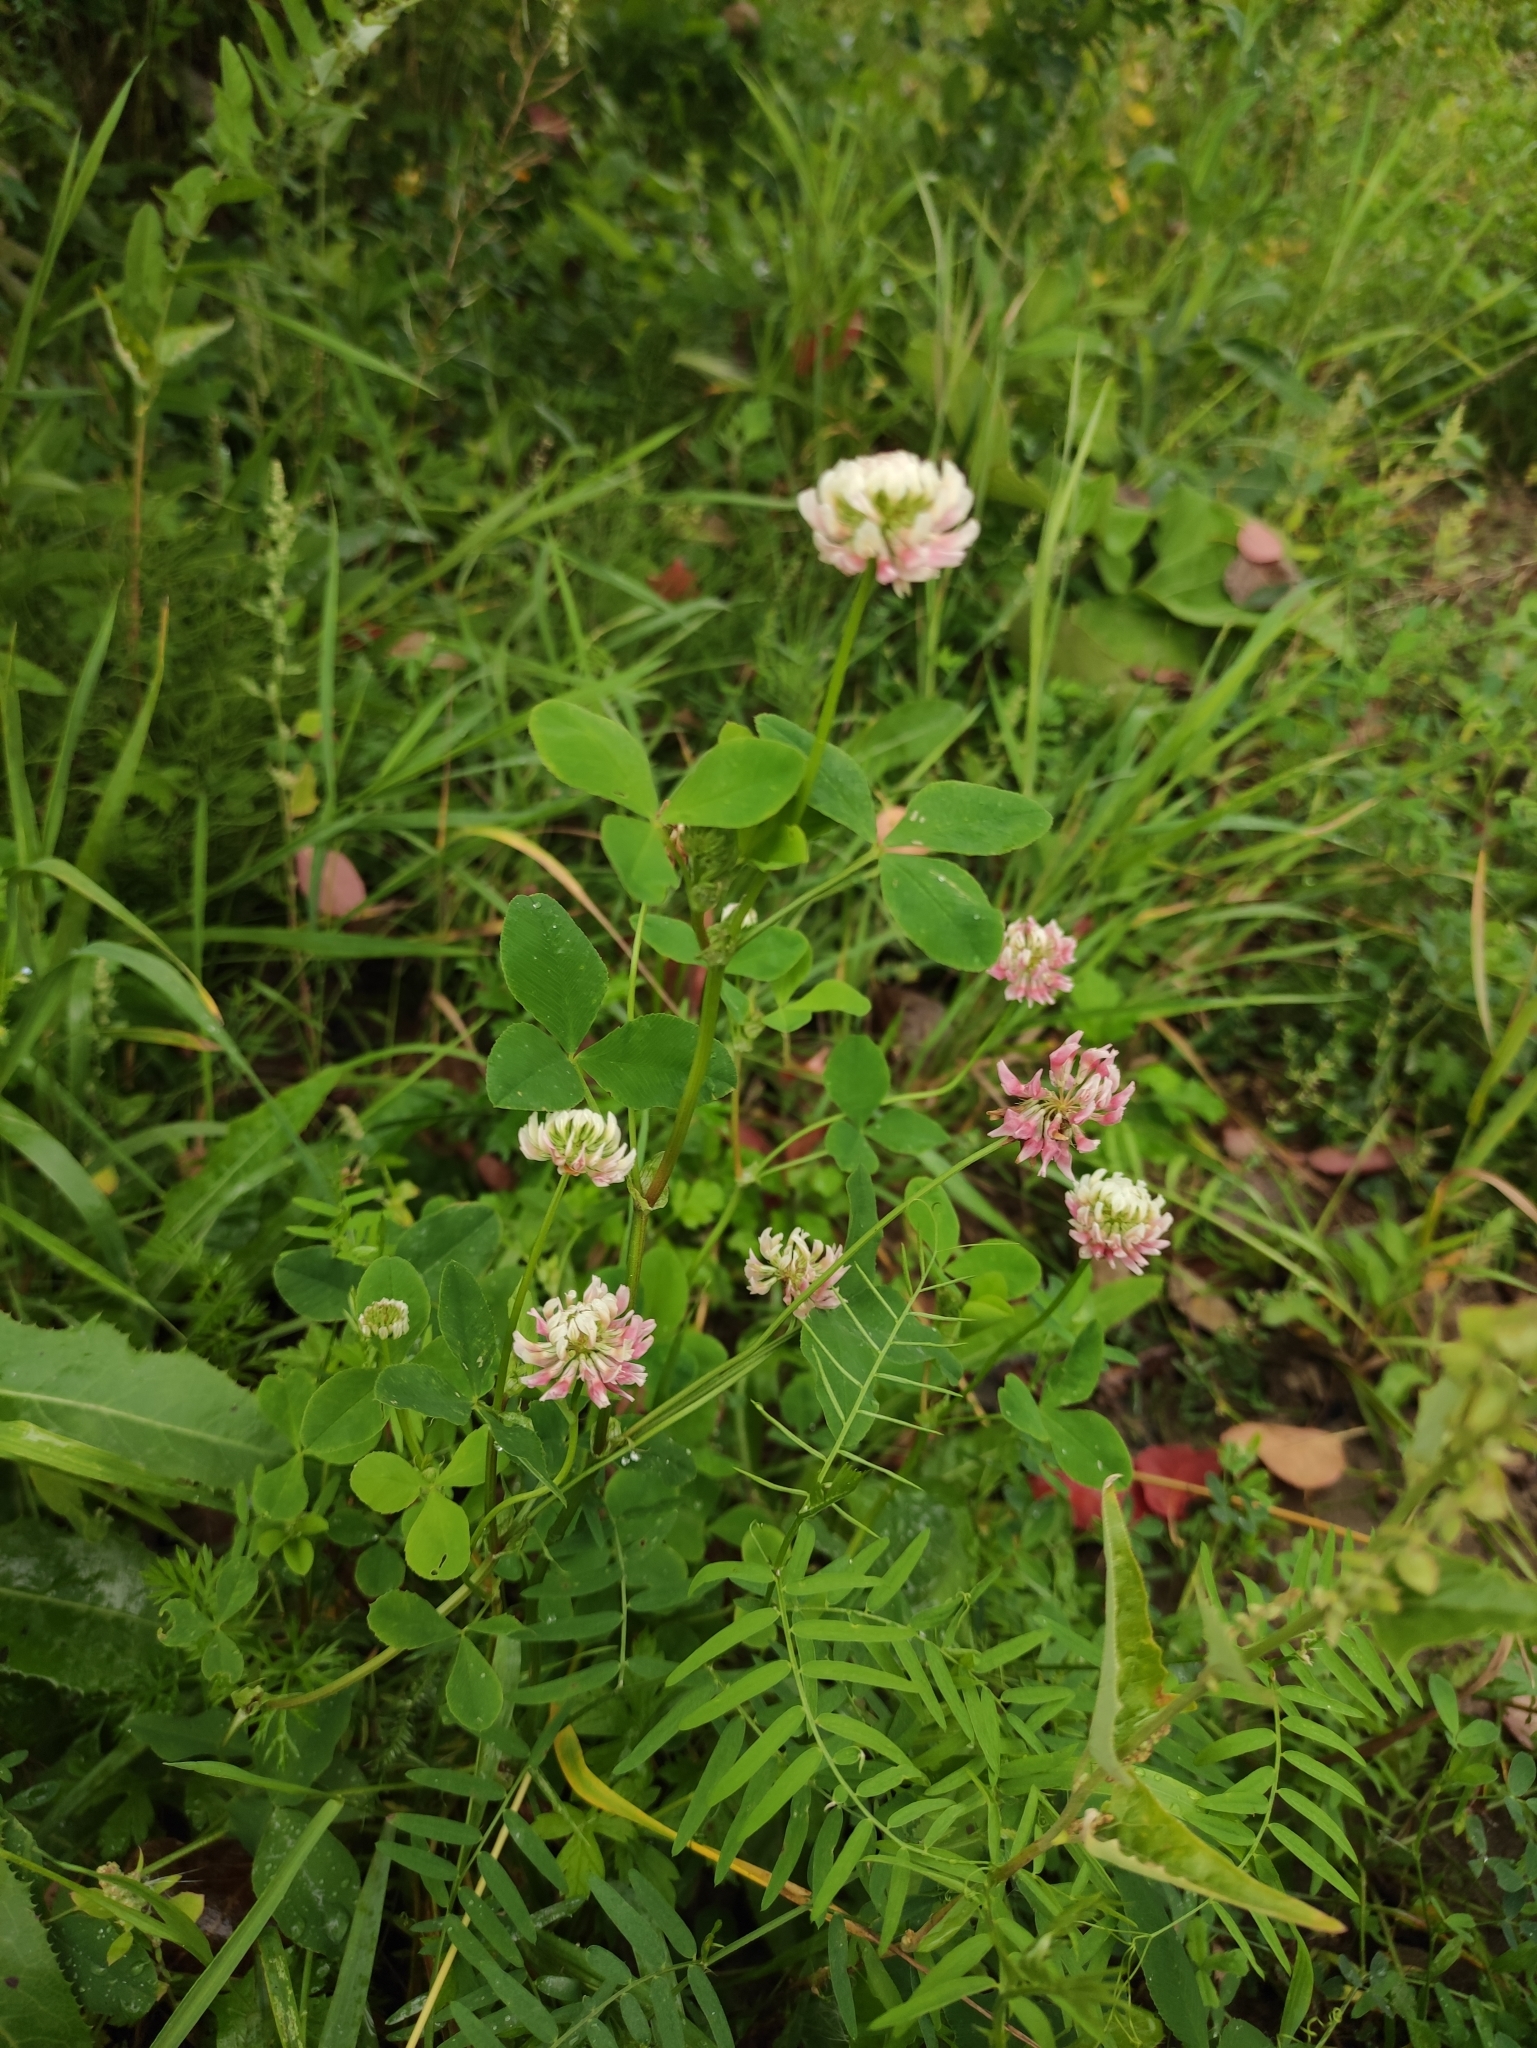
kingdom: Plantae
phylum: Tracheophyta
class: Magnoliopsida
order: Fabales
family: Fabaceae
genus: Trifolium
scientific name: Trifolium hybridum
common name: Alsike clover
